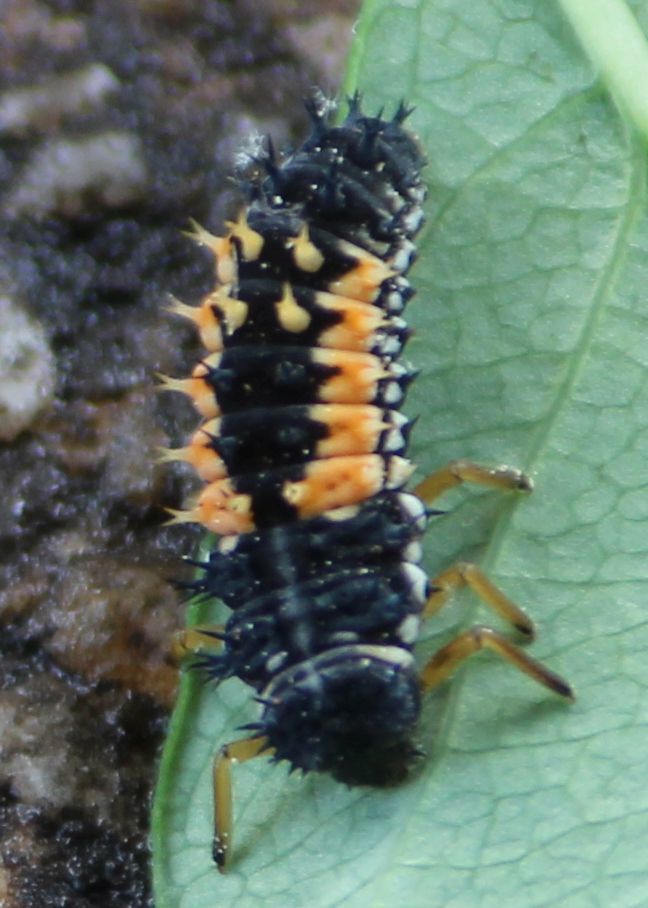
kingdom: Animalia
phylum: Arthropoda
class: Insecta
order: Coleoptera
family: Coccinellidae
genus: Harmonia
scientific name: Harmonia axyridis
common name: Harlequin ladybird
